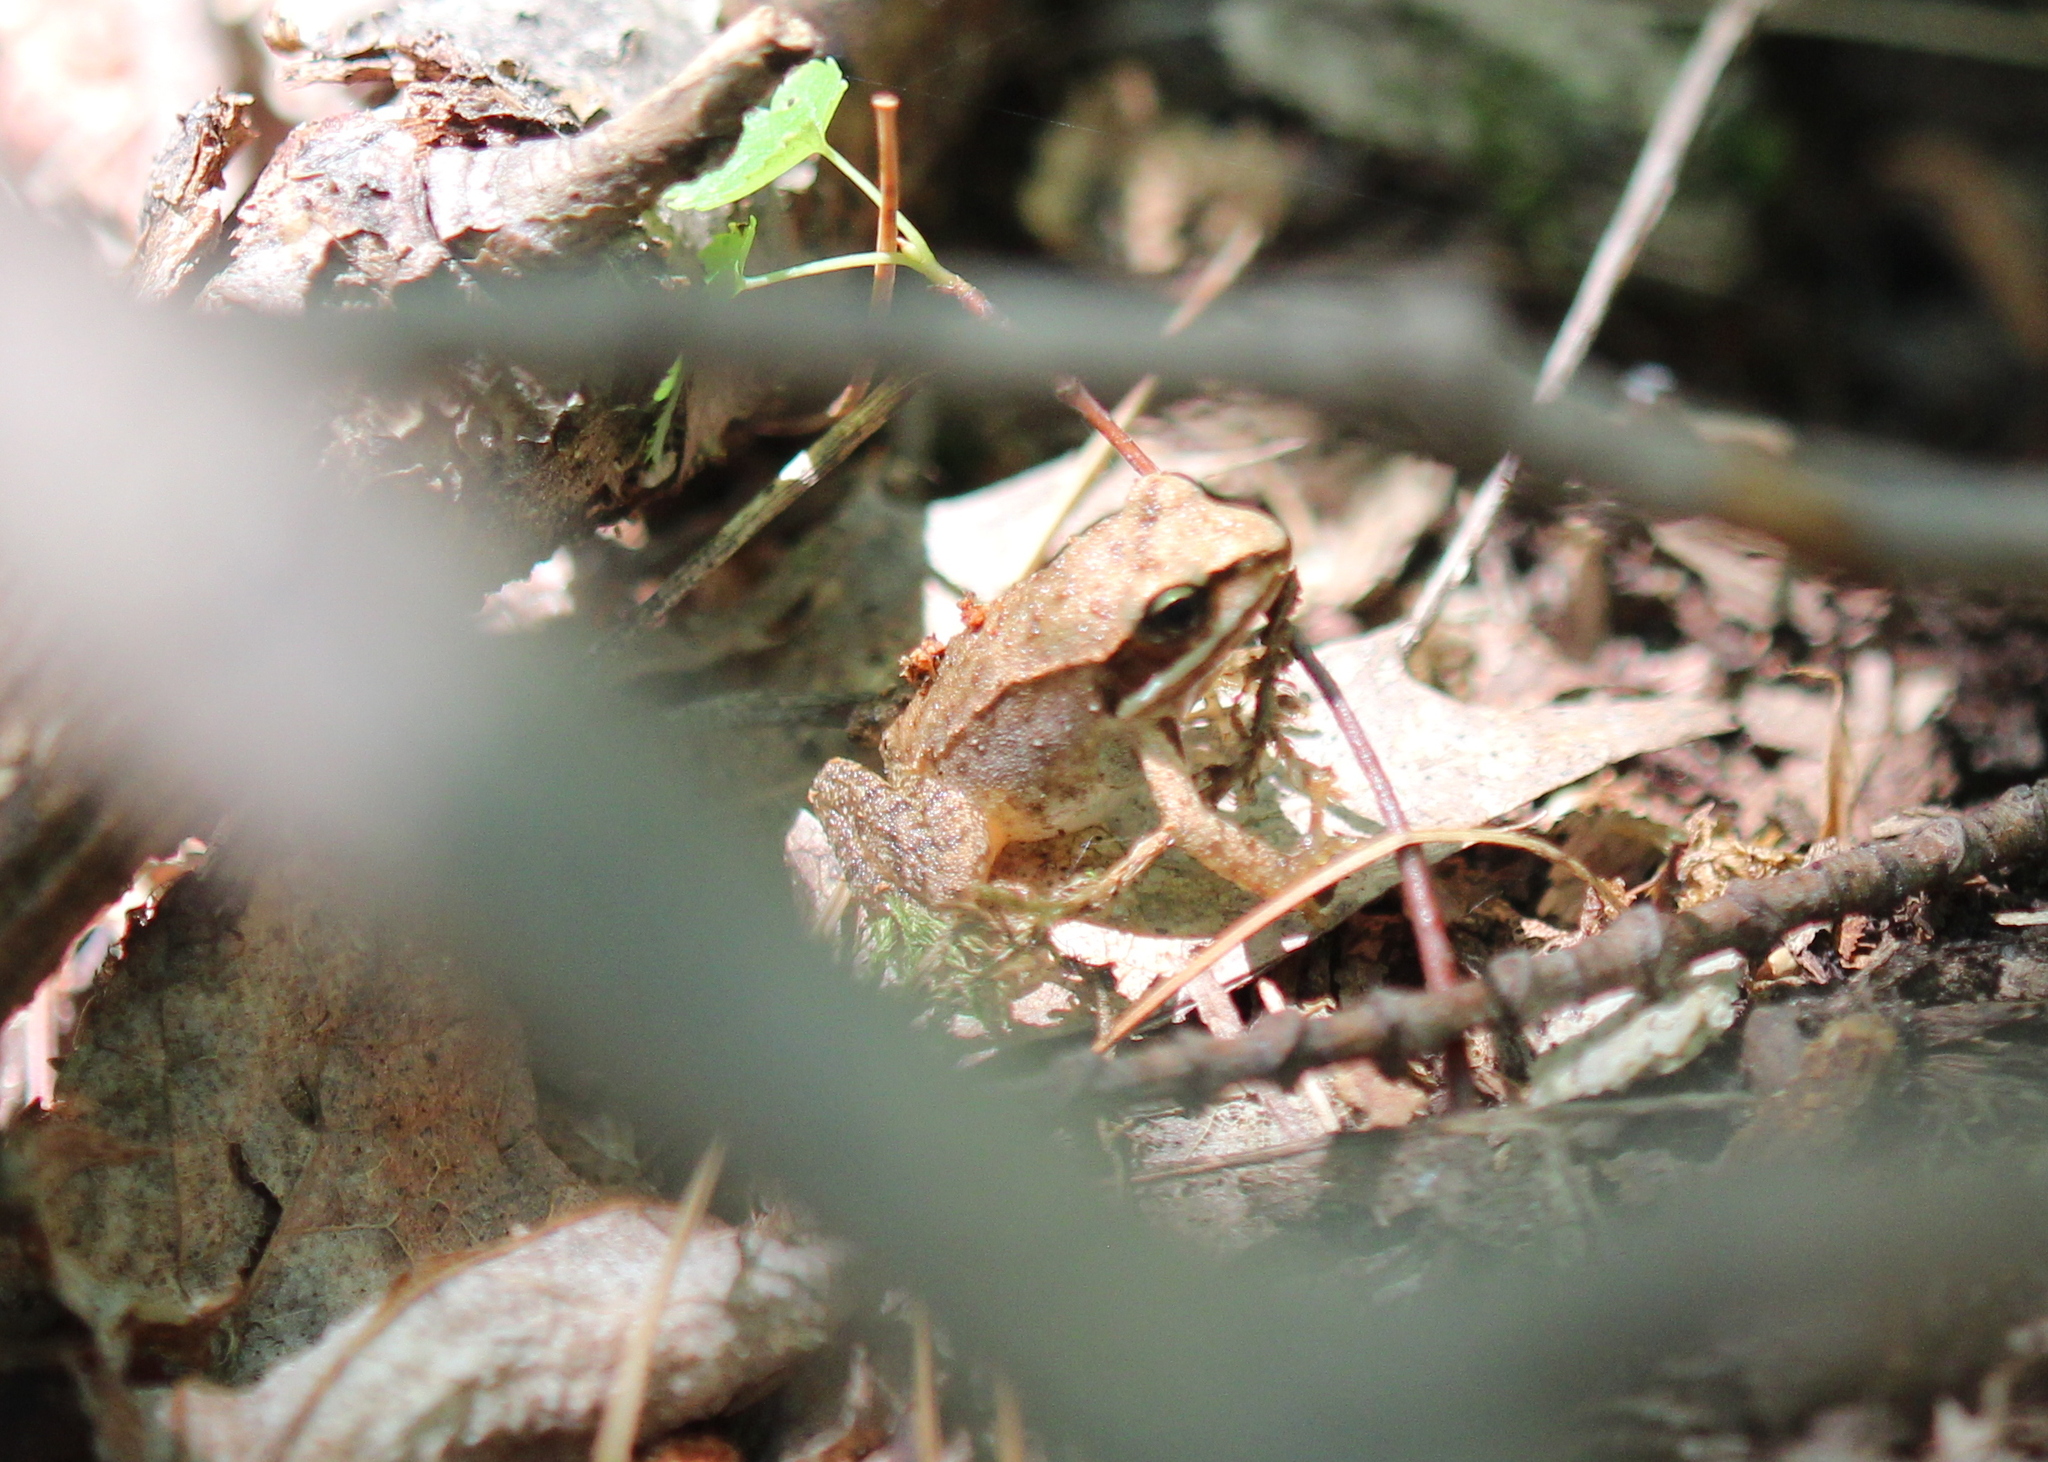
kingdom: Animalia
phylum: Chordata
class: Amphibia
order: Anura
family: Ranidae
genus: Lithobates
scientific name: Lithobates sylvaticus
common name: Wood frog
